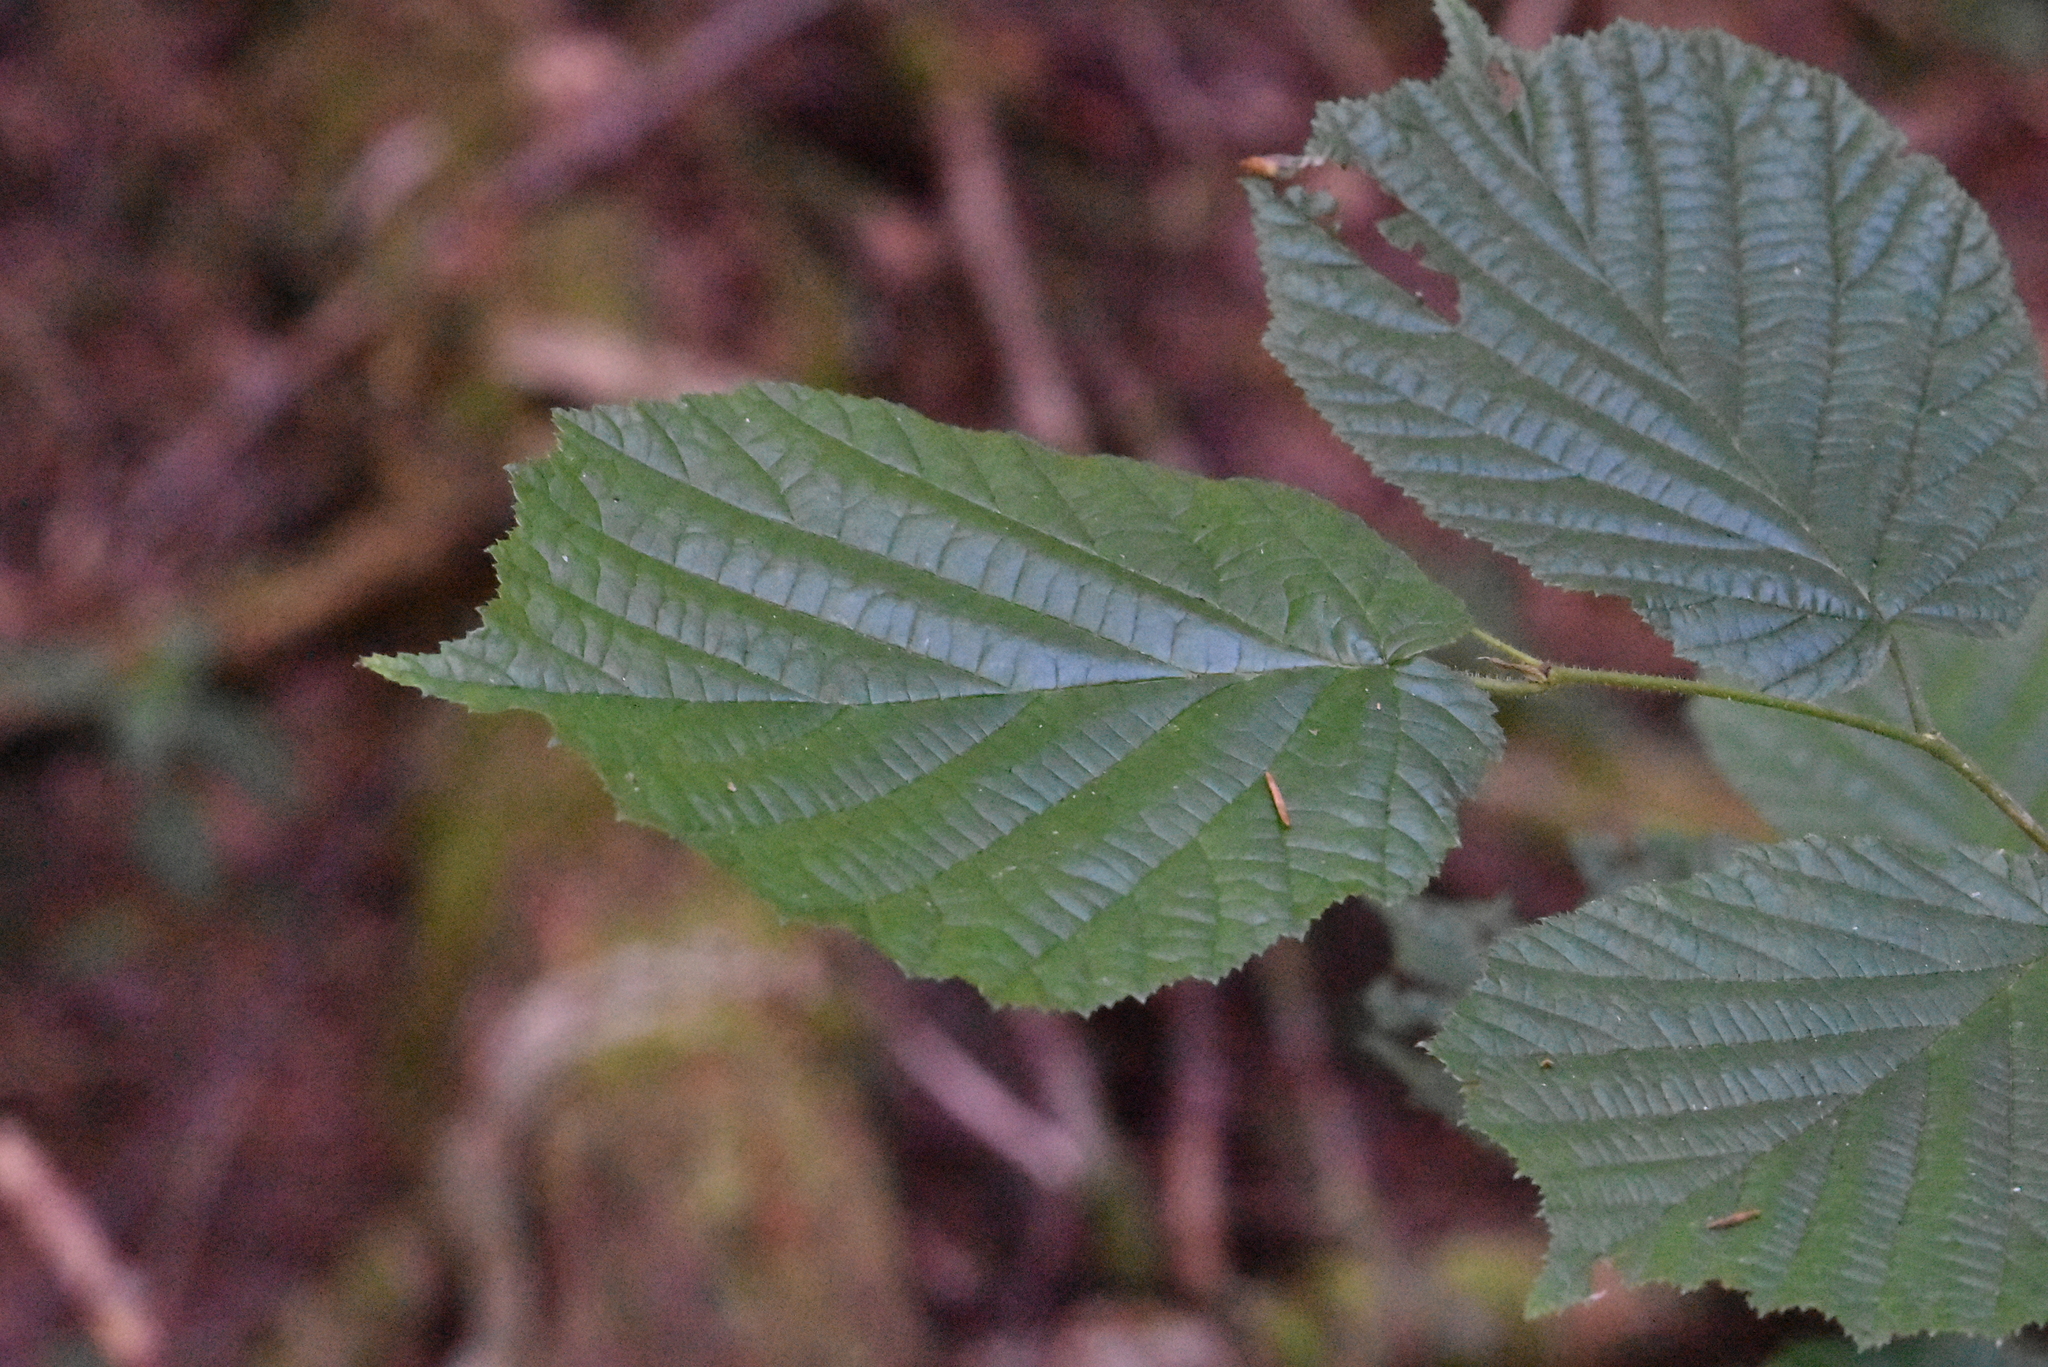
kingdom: Plantae
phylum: Tracheophyta
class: Magnoliopsida
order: Fagales
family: Betulaceae
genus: Corylus
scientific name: Corylus avellana
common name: European hazel
